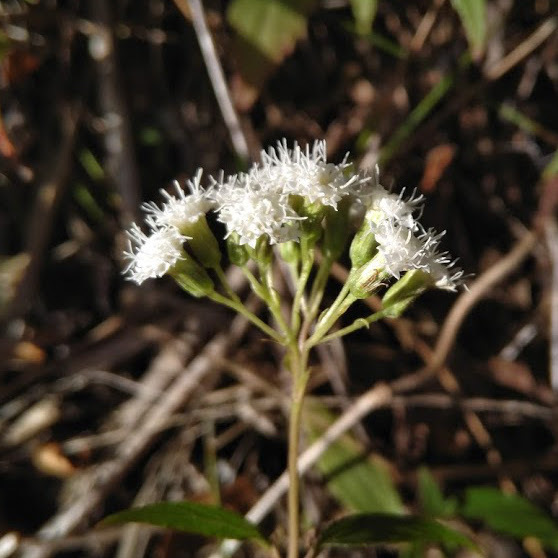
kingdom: Plantae
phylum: Tracheophyta
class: Magnoliopsida
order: Asterales
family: Asteraceae
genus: Ageratina
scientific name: Ageratina riparia
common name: Creeping croftonweed
